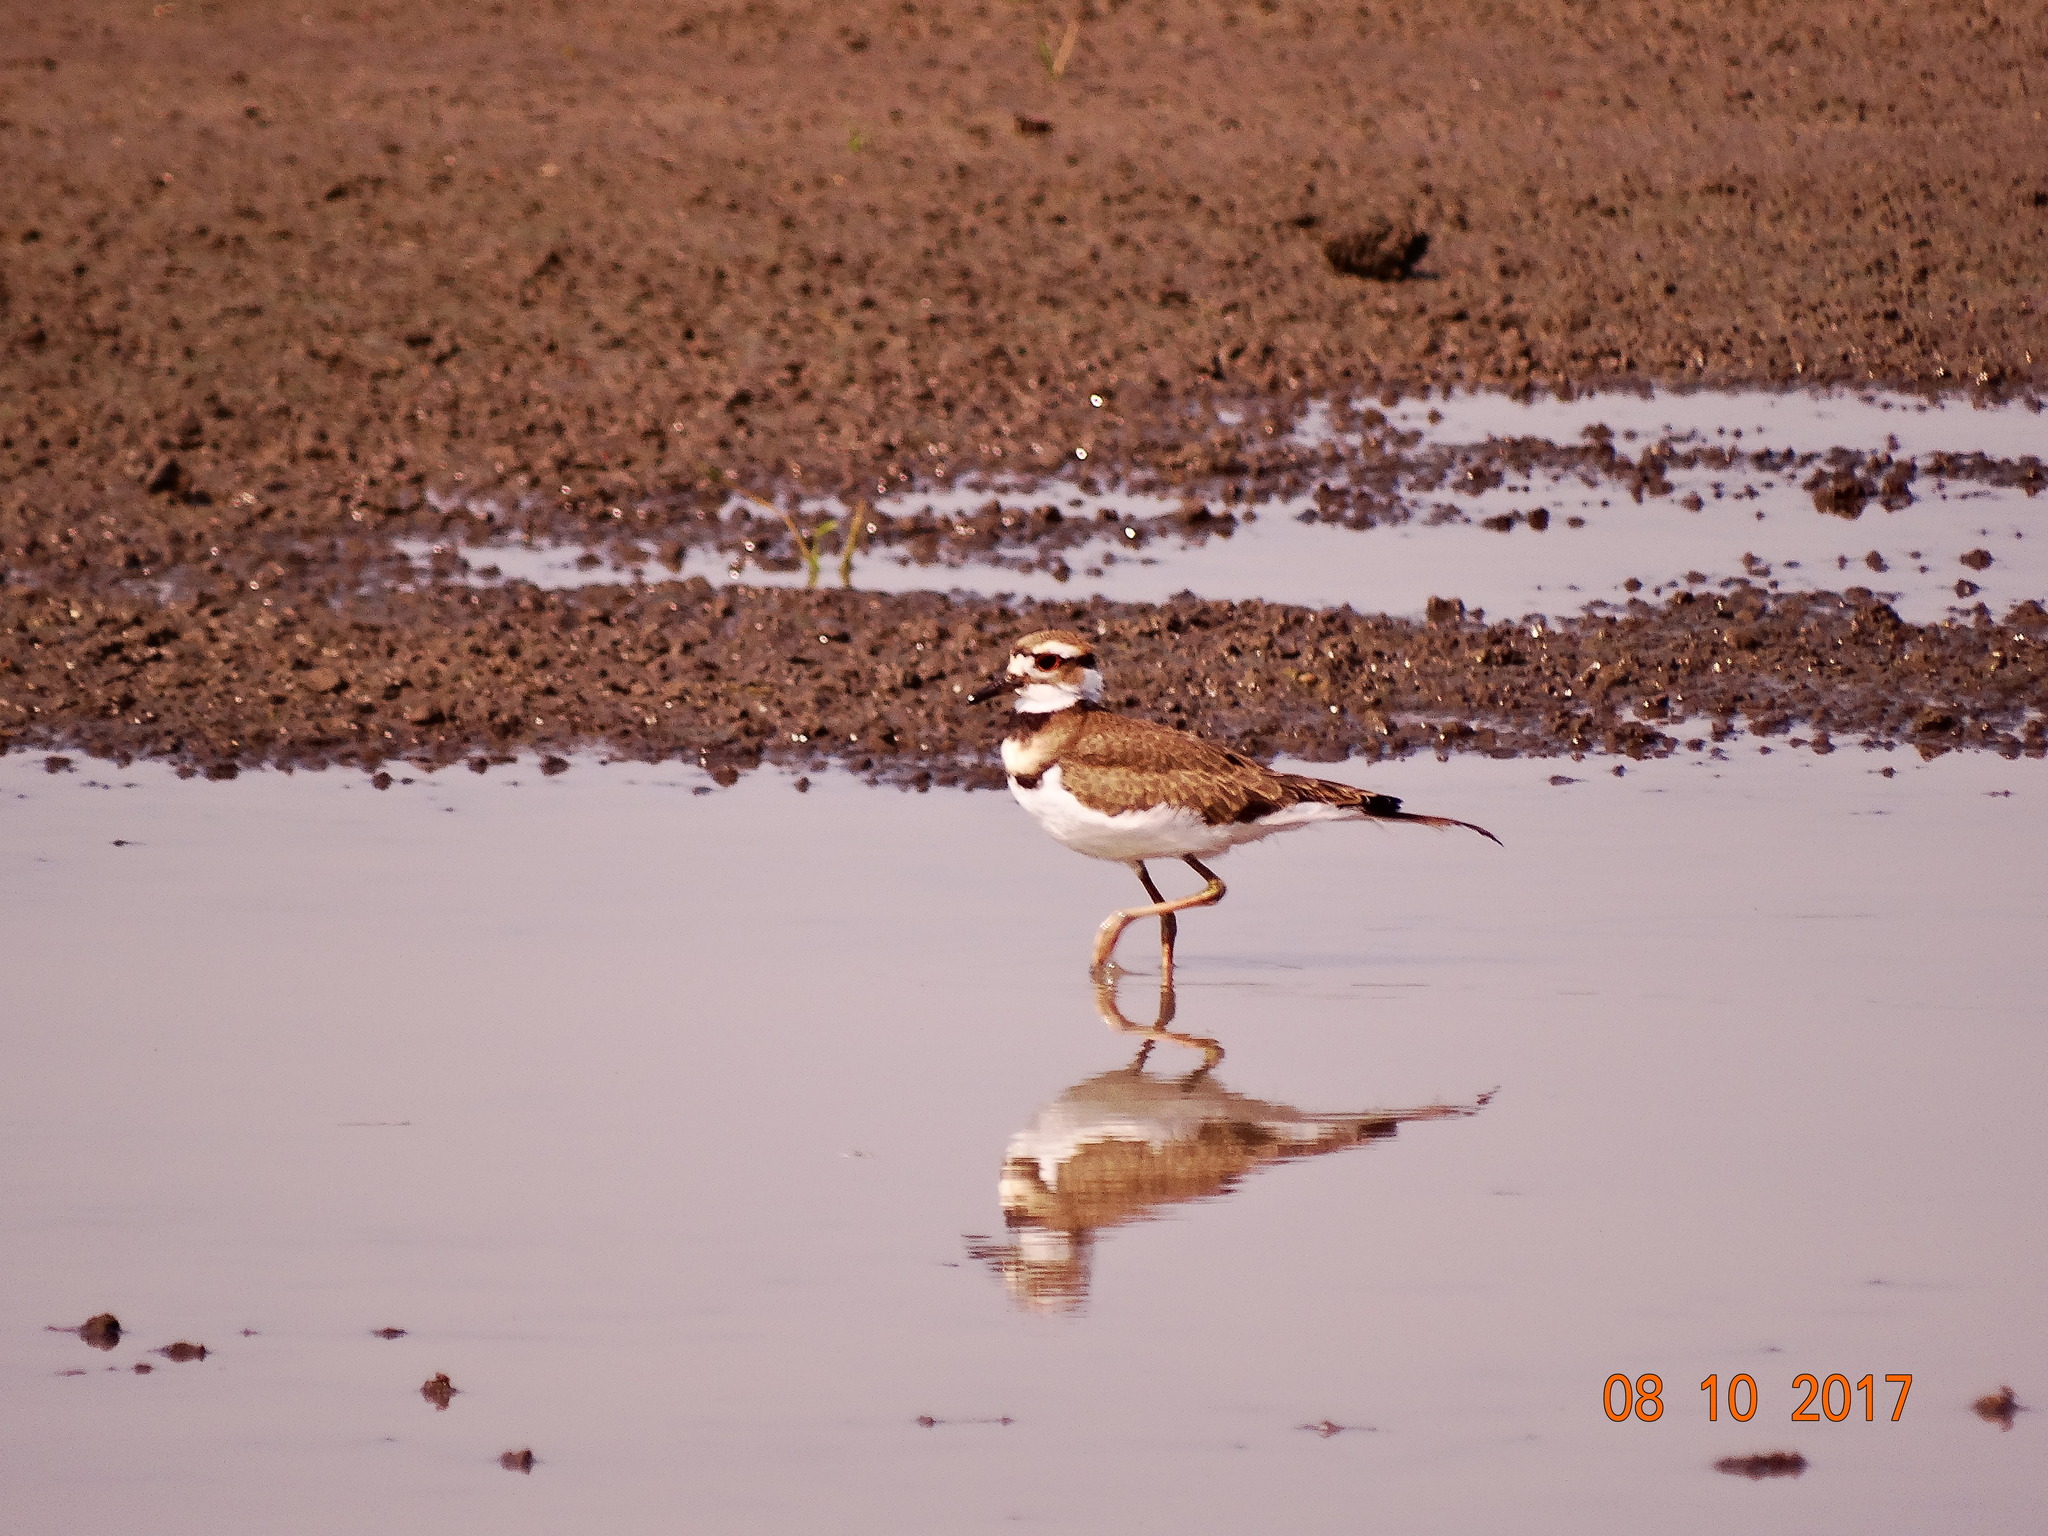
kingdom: Animalia
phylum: Chordata
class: Aves
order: Charadriiformes
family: Charadriidae
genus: Charadrius
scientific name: Charadrius vociferus
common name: Killdeer
